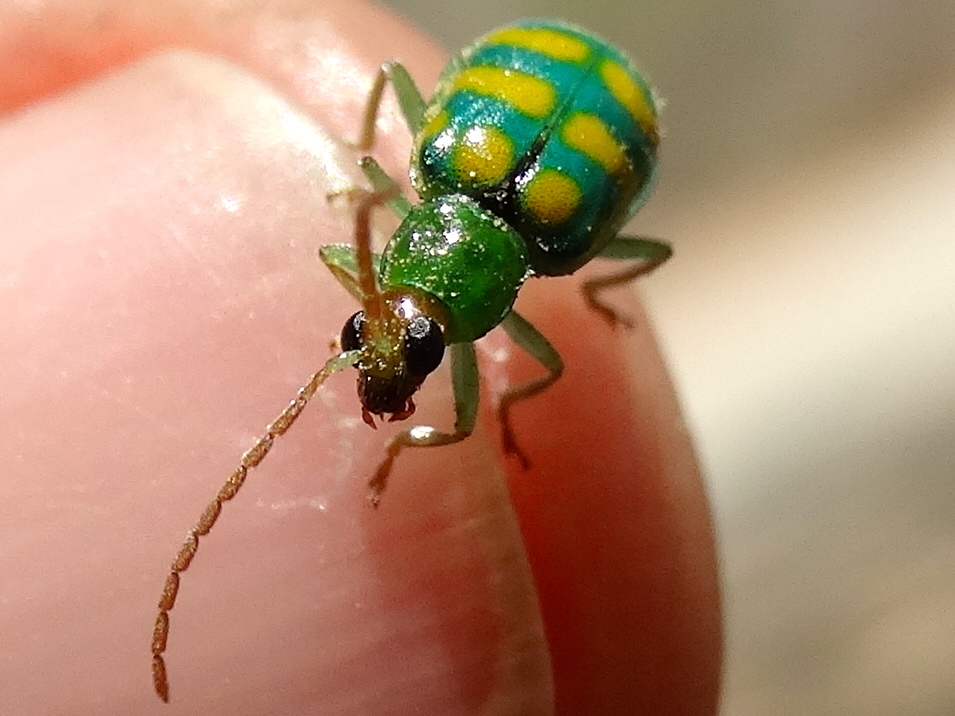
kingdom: Animalia
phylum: Arthropoda
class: Insecta
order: Coleoptera
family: Chrysomelidae
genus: Diabrotica
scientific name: Diabrotica balteata
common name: Leaf beetle
